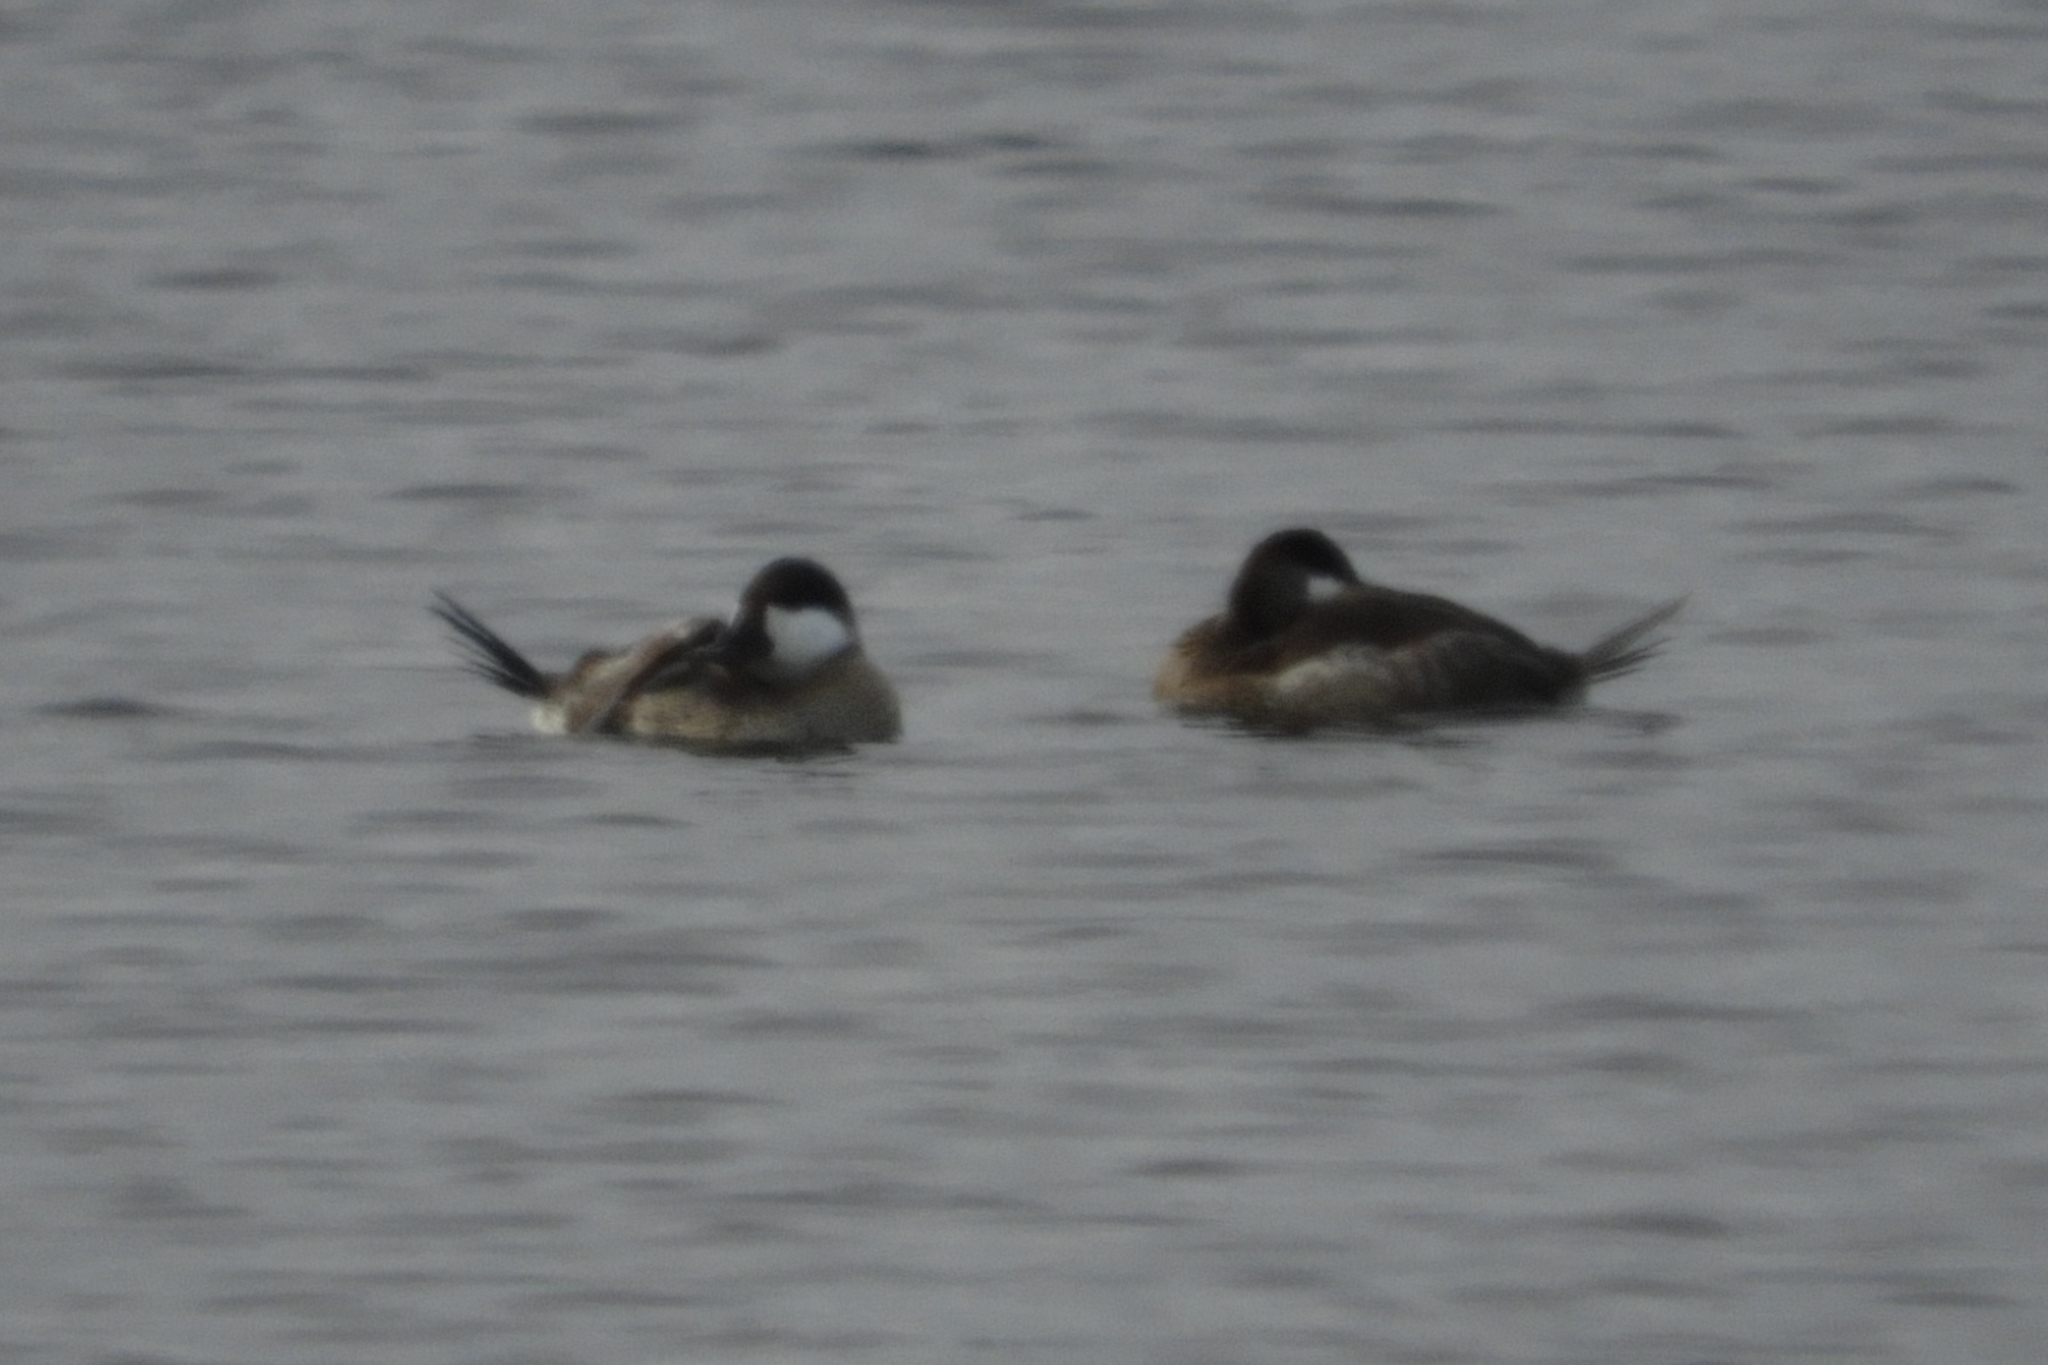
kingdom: Animalia
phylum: Chordata
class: Aves
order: Anseriformes
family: Anatidae
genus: Oxyura
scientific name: Oxyura jamaicensis
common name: Ruddy duck
